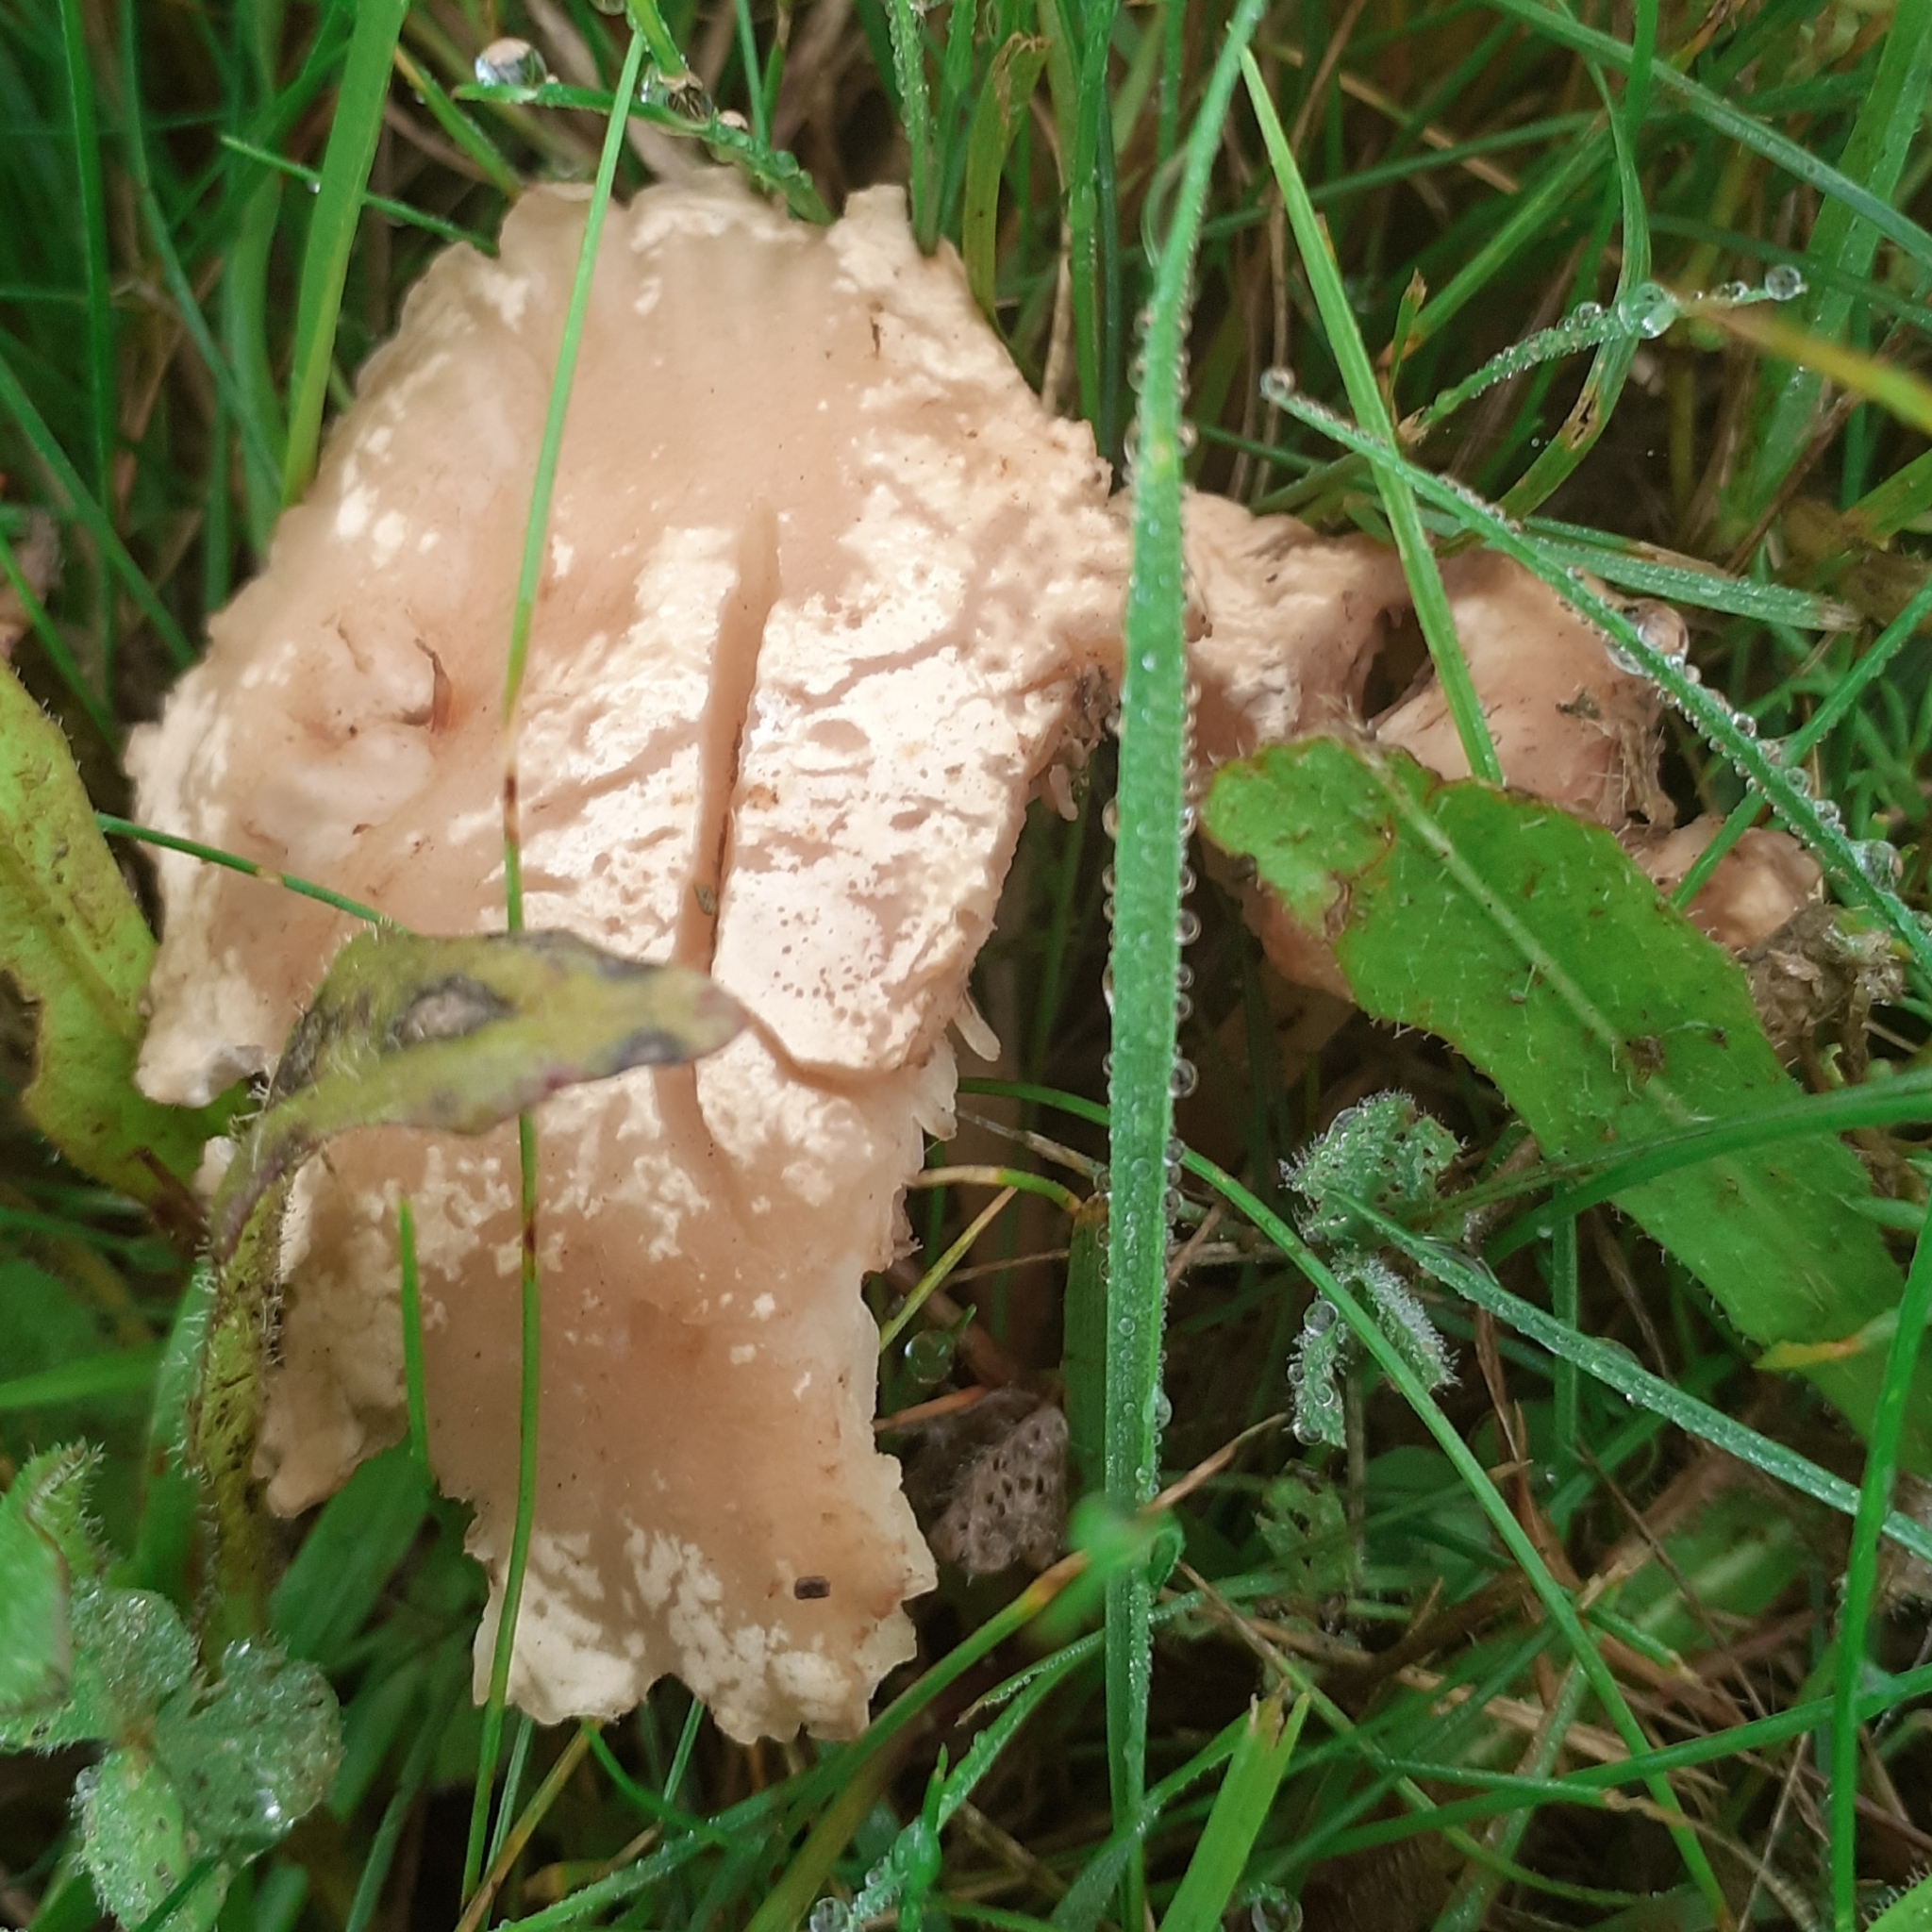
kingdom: Fungi
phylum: Basidiomycota
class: Agaricomycetes
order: Agaricales
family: Marasmiaceae
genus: Marasmius
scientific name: Marasmius oreades
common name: Fairy ring champignon
